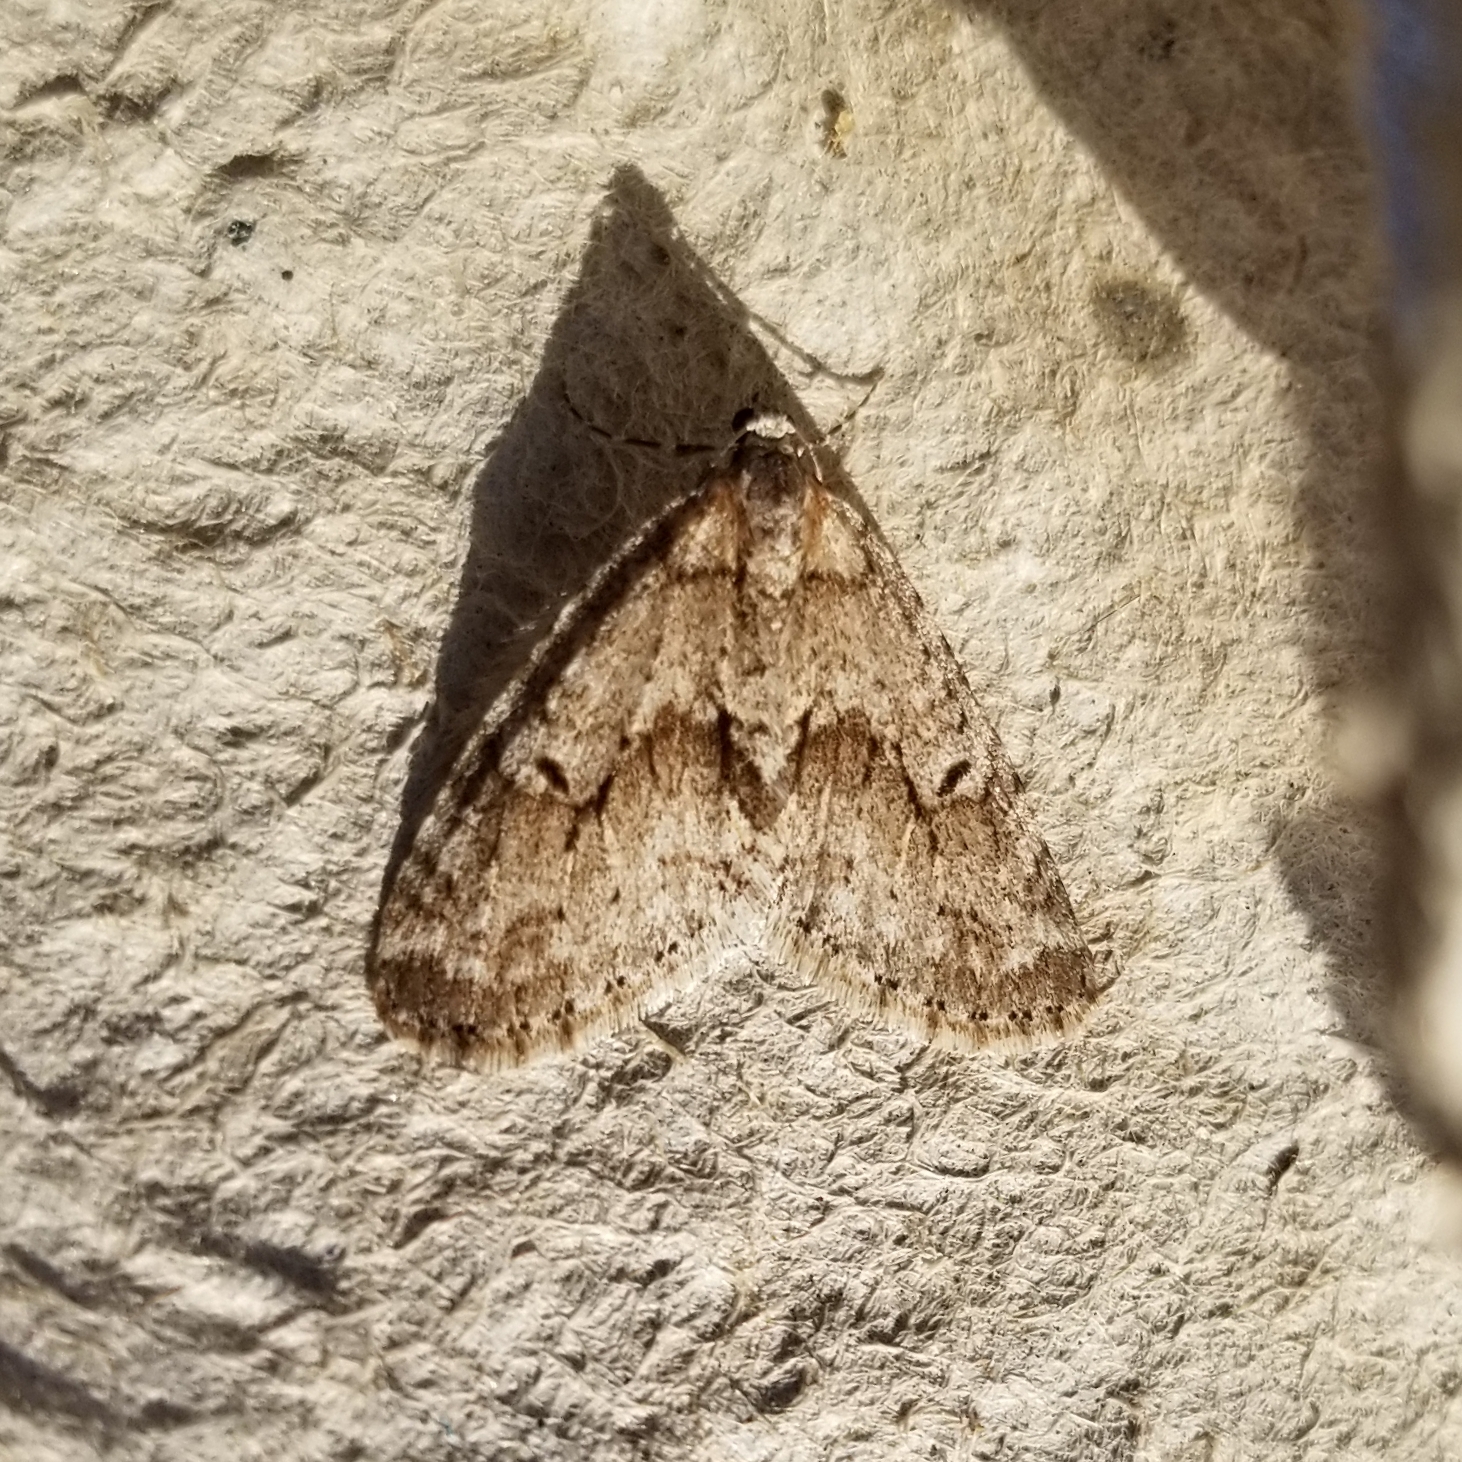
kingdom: Animalia
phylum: Arthropoda
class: Insecta
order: Lepidoptera
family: Geometridae
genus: Cladara
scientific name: Cladara limitaria
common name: Mottled gray carpet
